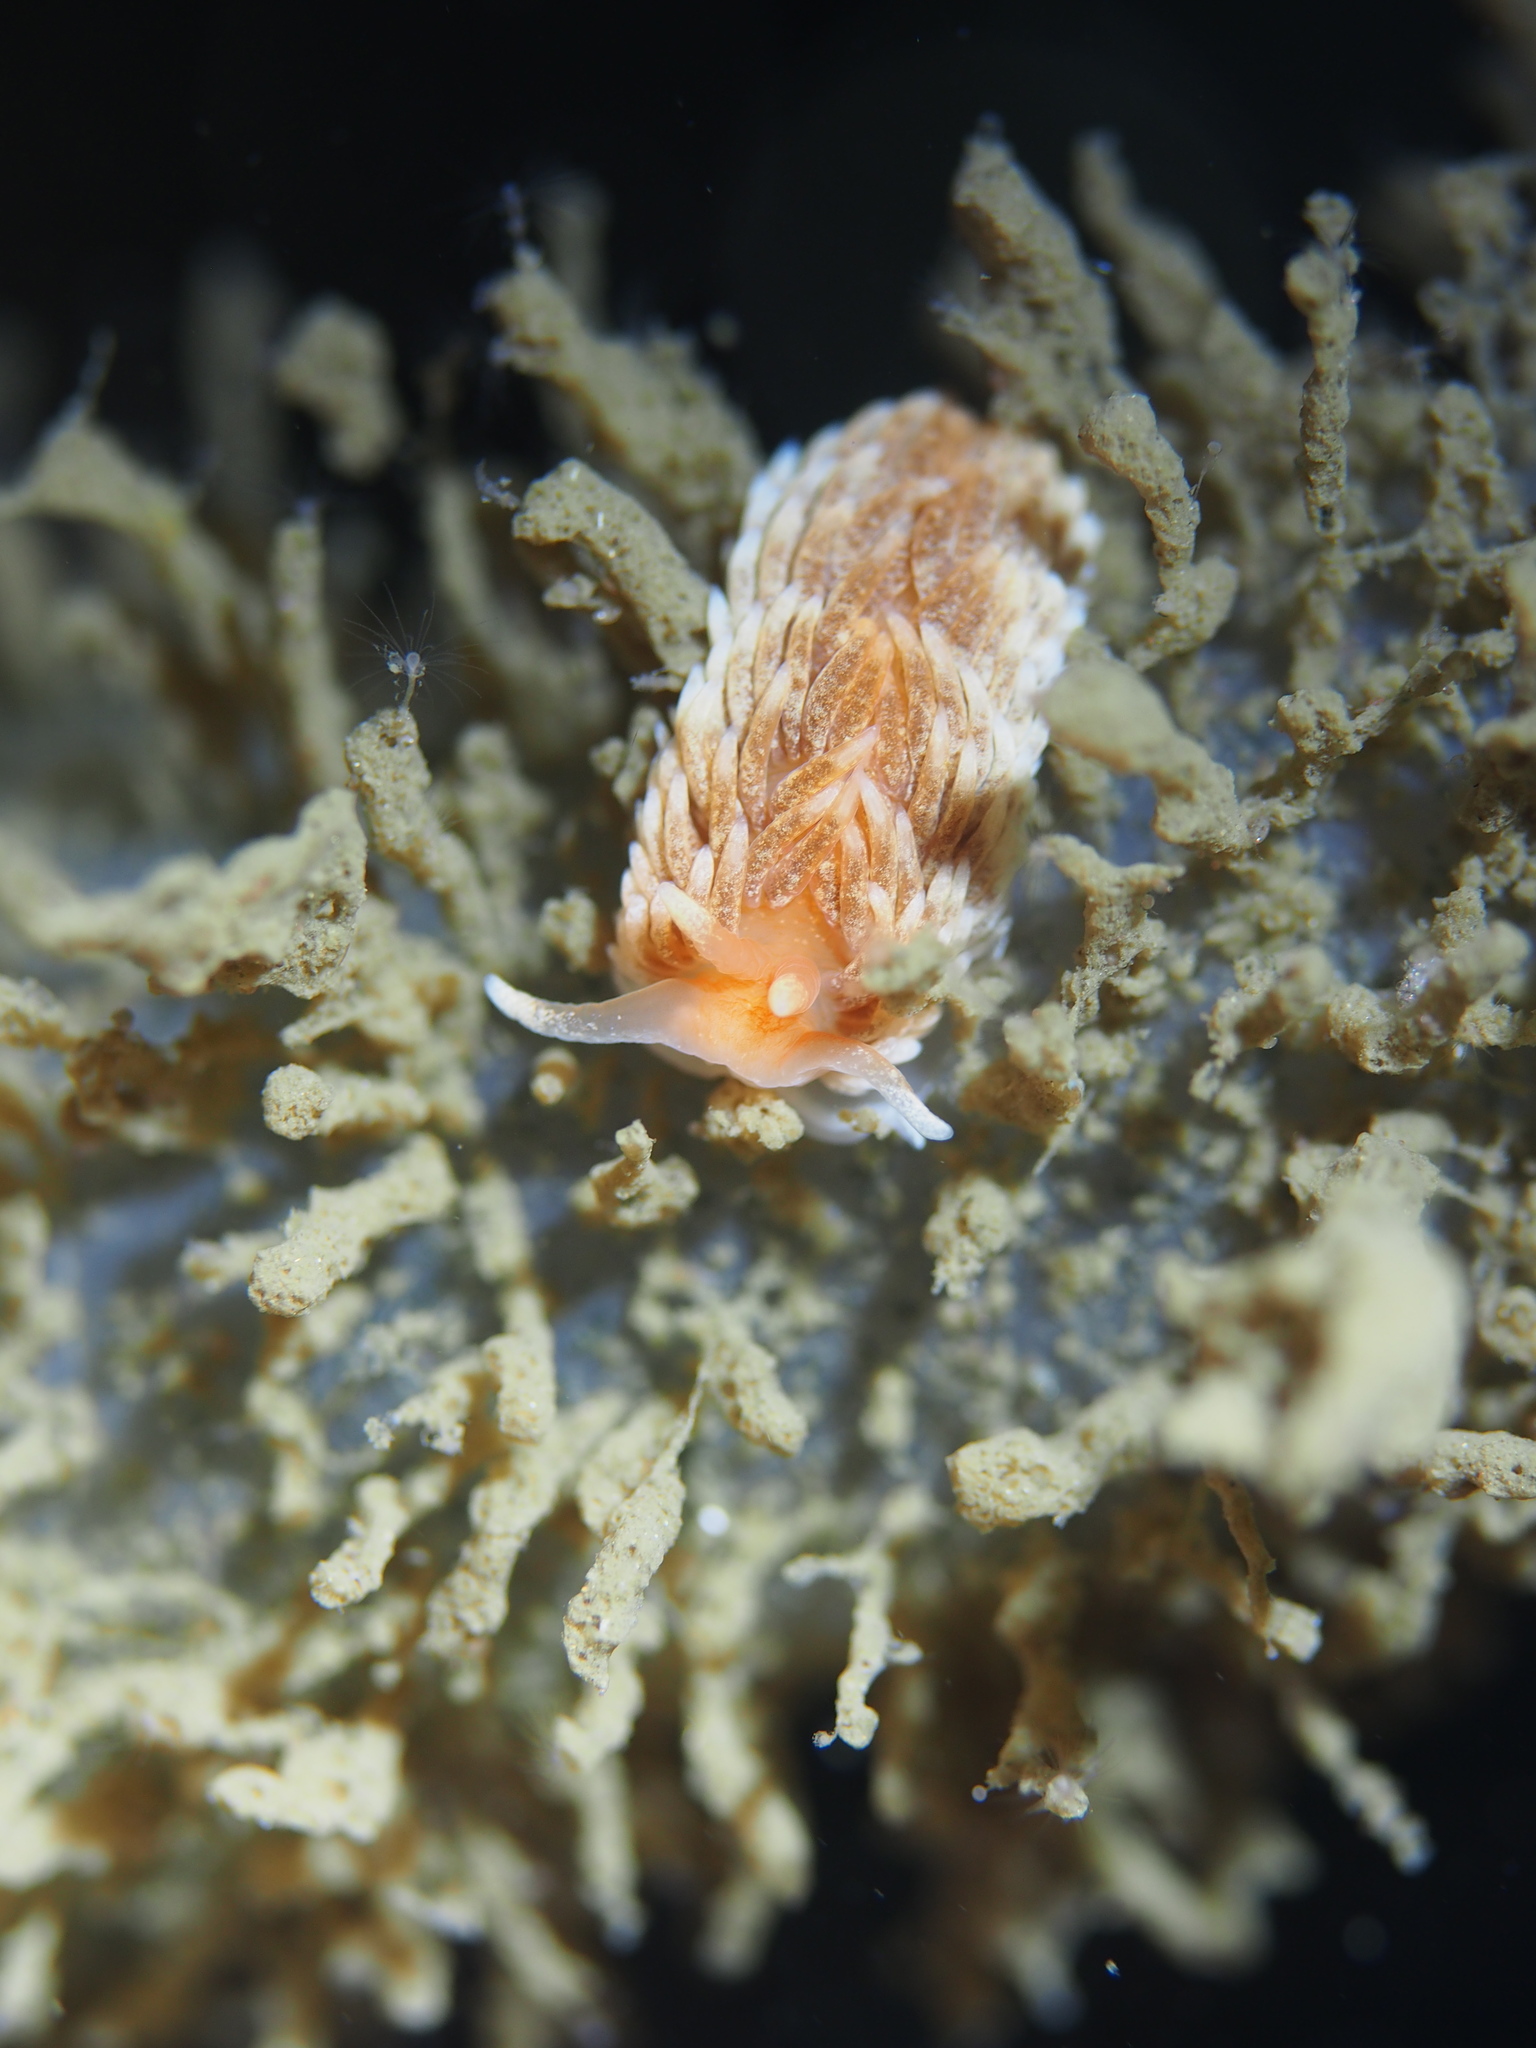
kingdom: Animalia
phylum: Mollusca
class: Gastropoda
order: Nudibranchia
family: Aeolidiidae
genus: Aeolidiella
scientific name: Aeolidiella glauca
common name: Orange-brown aeolid
